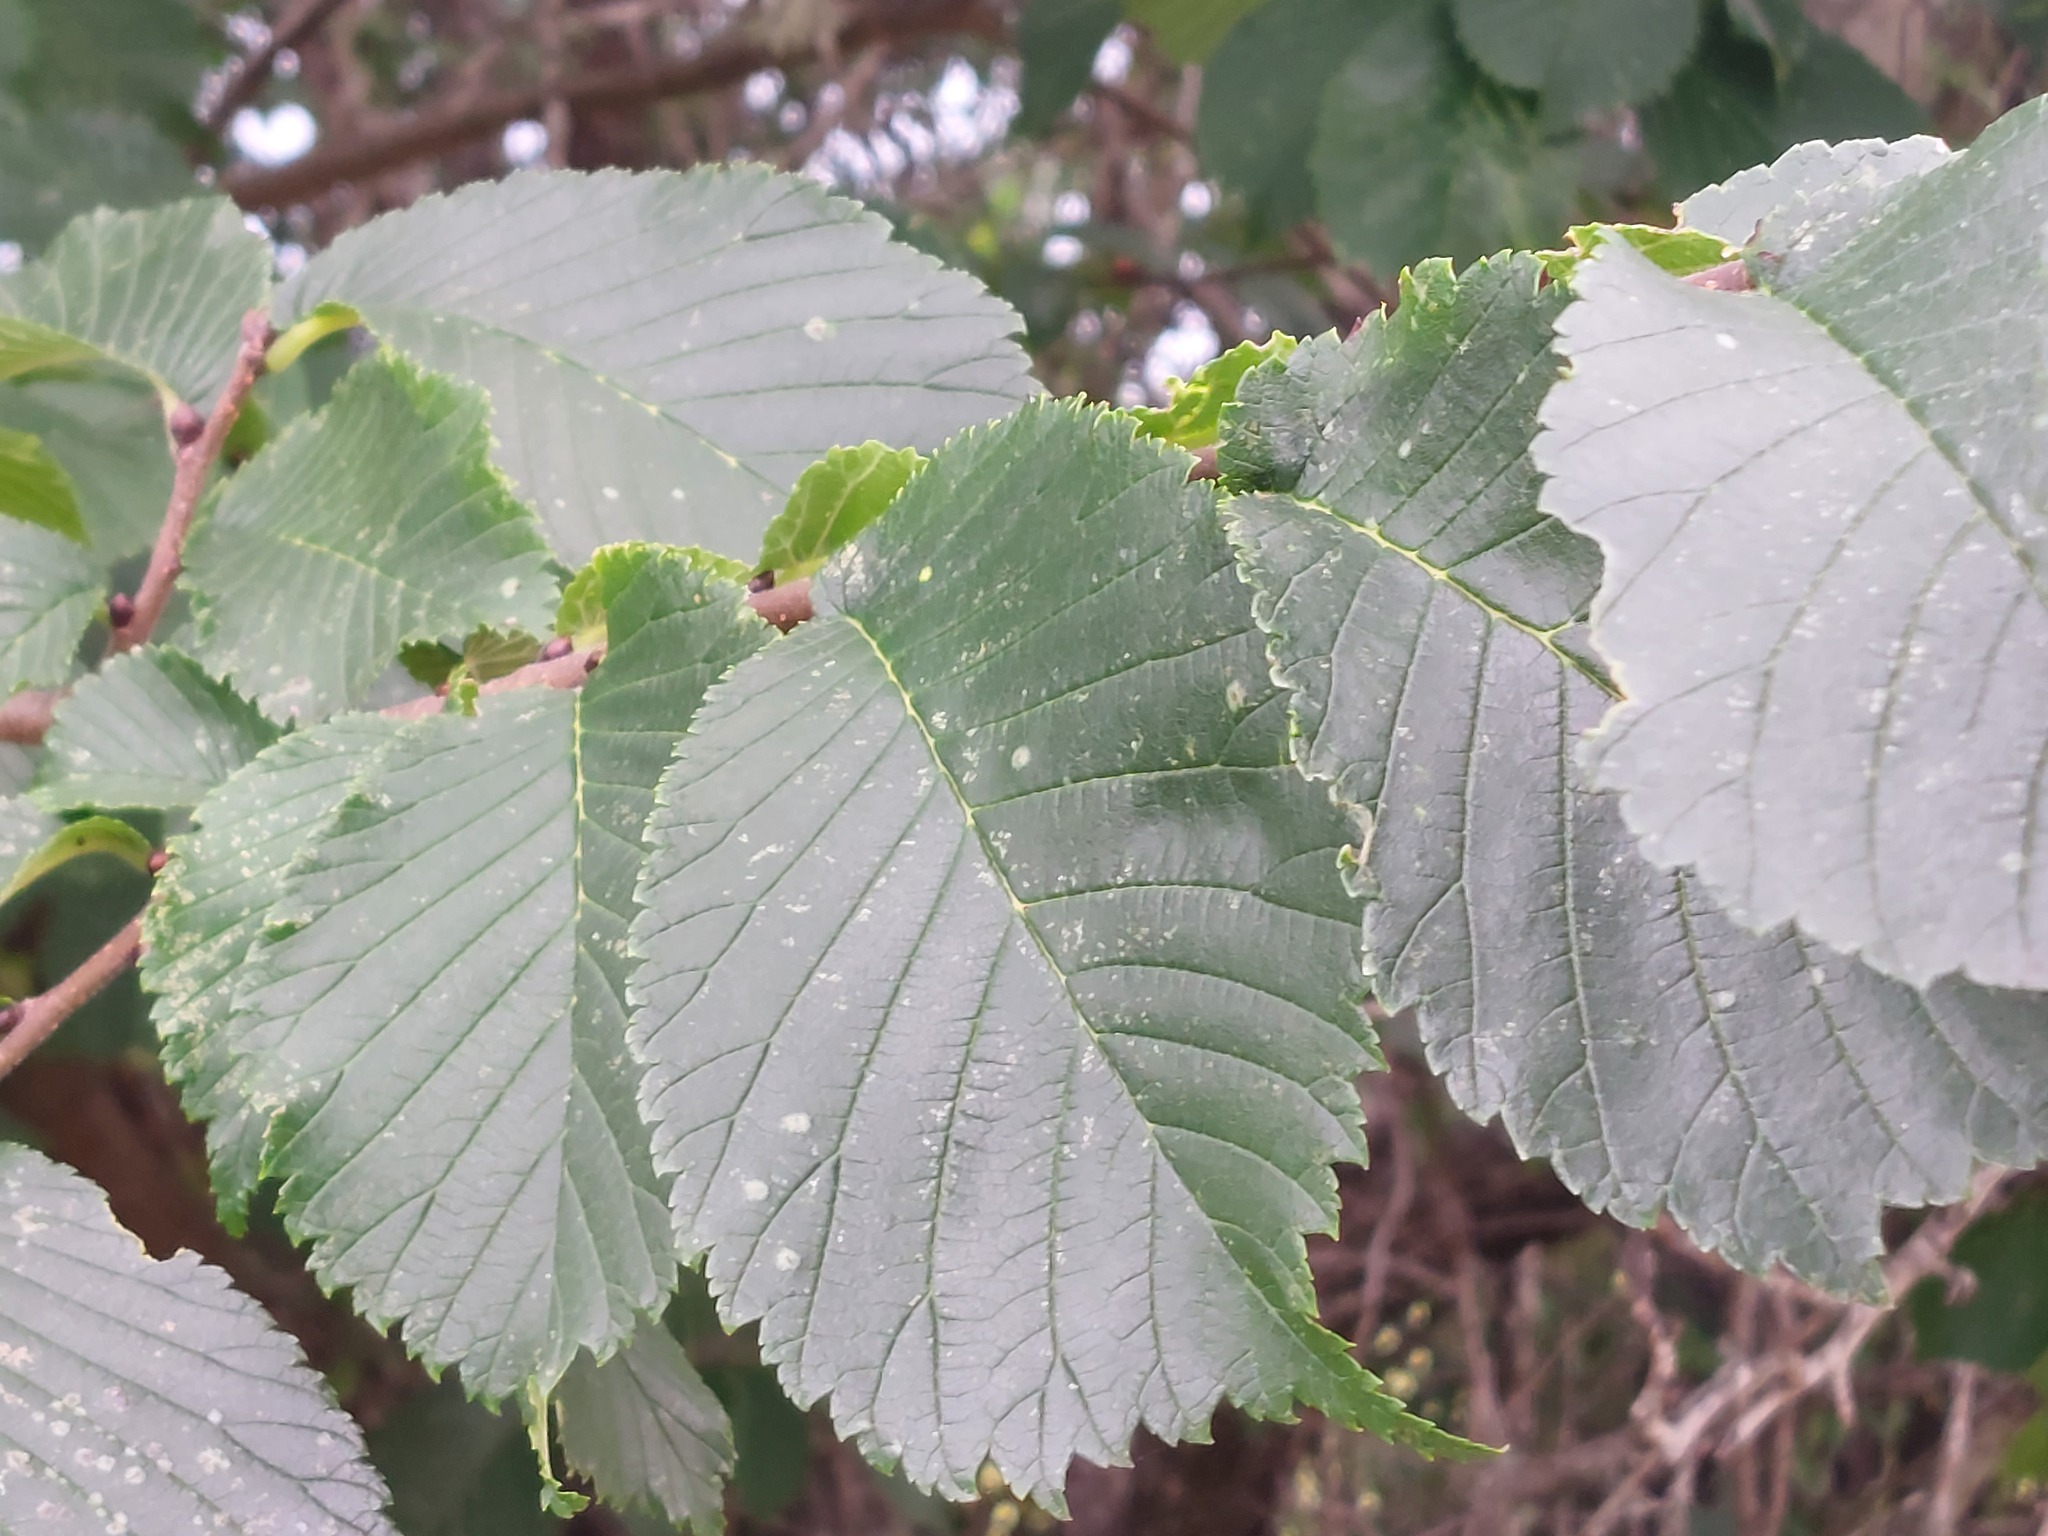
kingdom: Plantae
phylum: Tracheophyta
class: Magnoliopsida
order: Rosales
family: Ulmaceae
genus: Ulmus
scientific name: Ulmus glabra
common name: Wych elm
